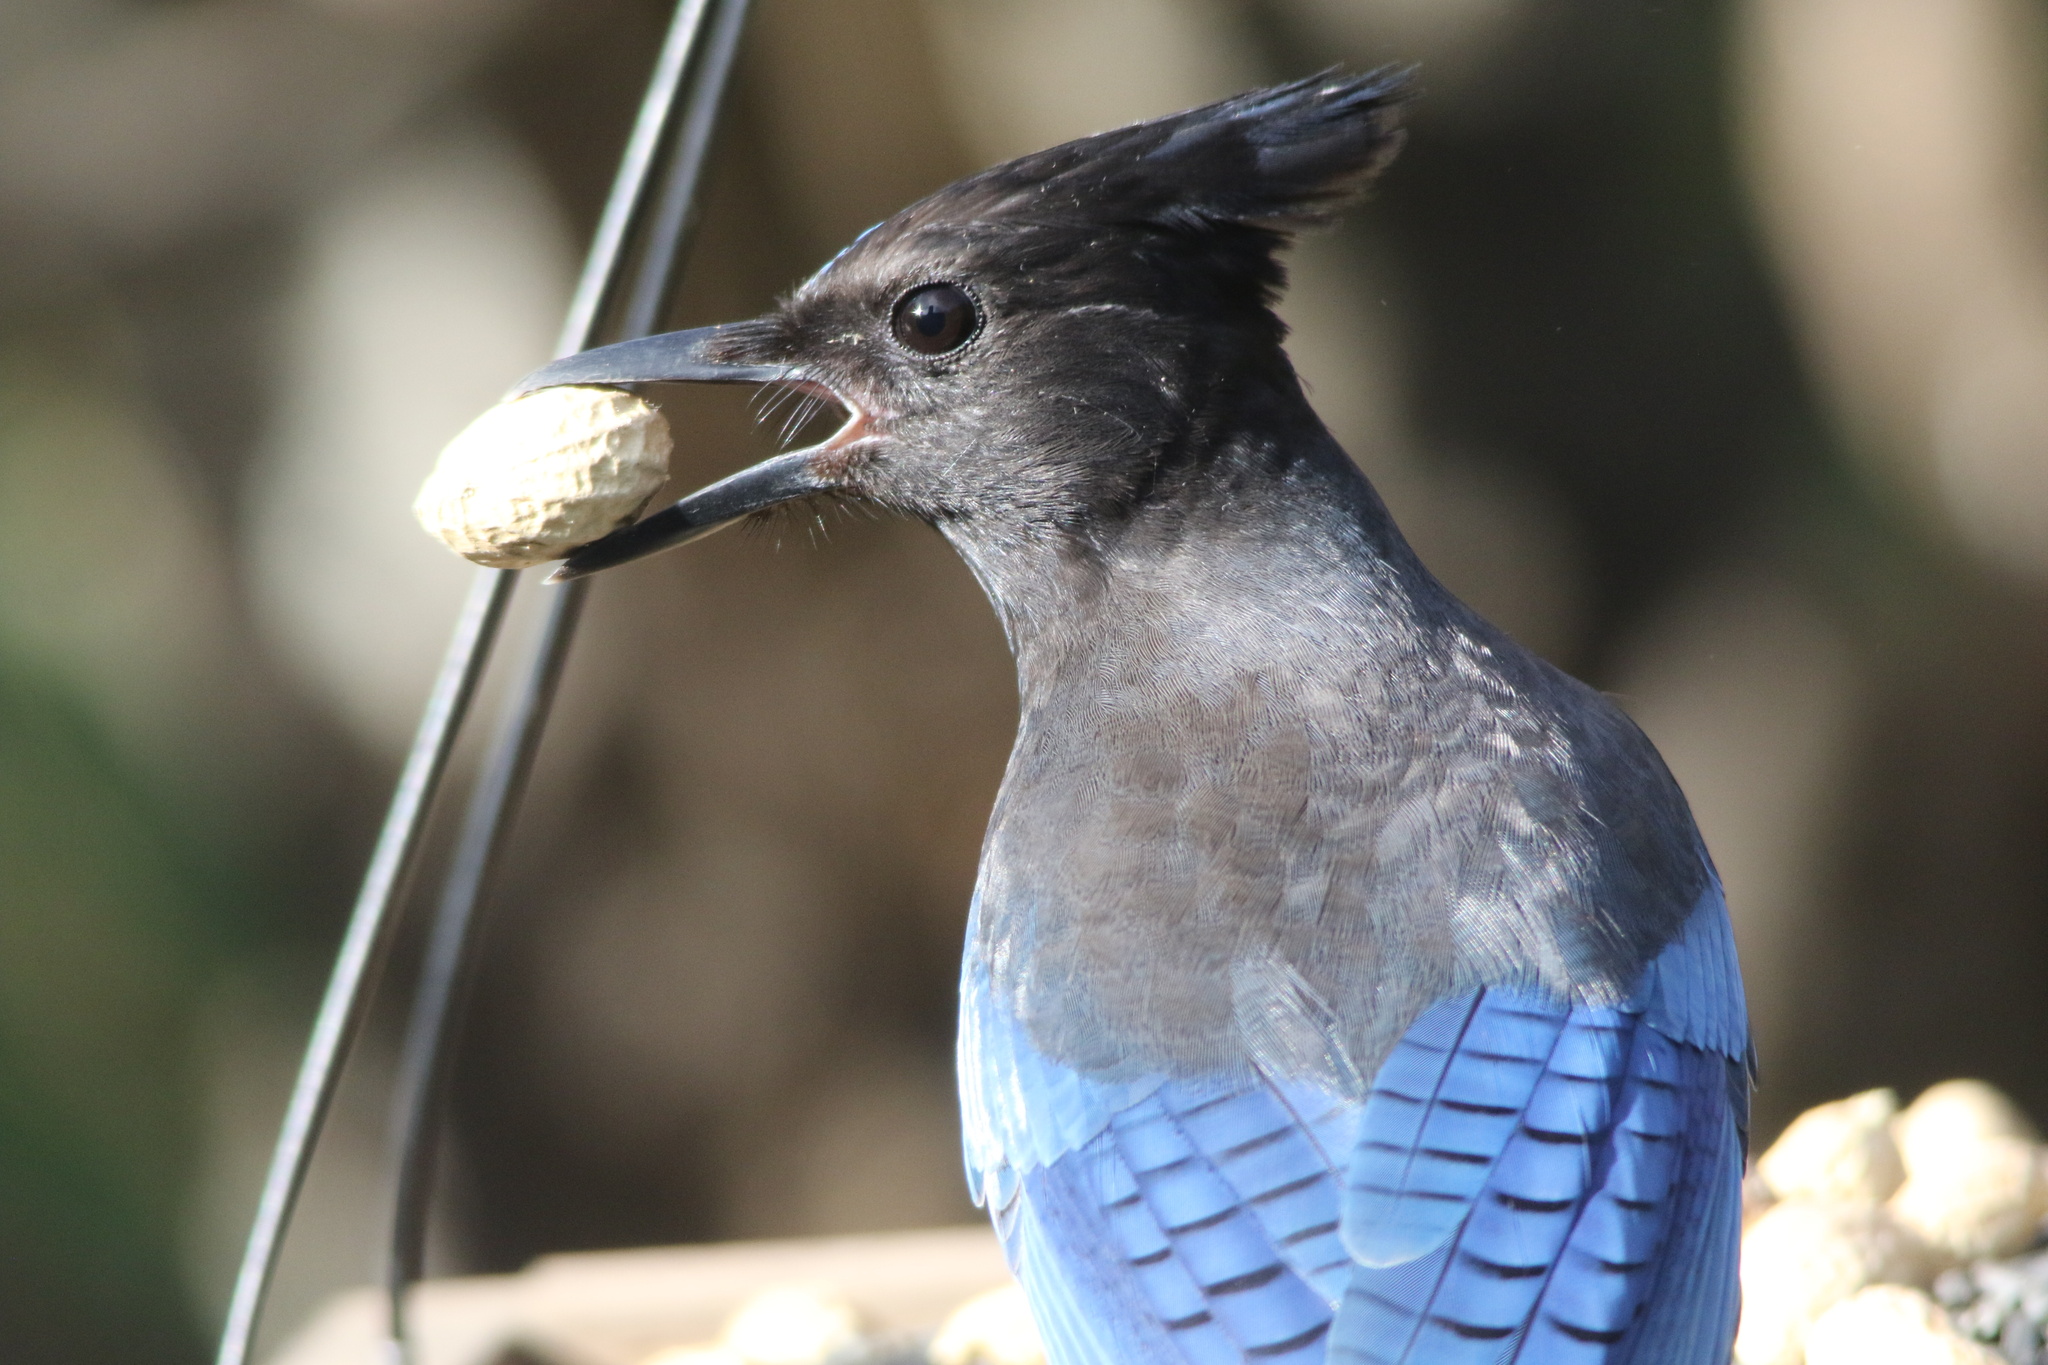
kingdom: Animalia
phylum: Chordata
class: Aves
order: Passeriformes
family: Corvidae
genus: Cyanocitta
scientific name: Cyanocitta stelleri
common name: Steller's jay
